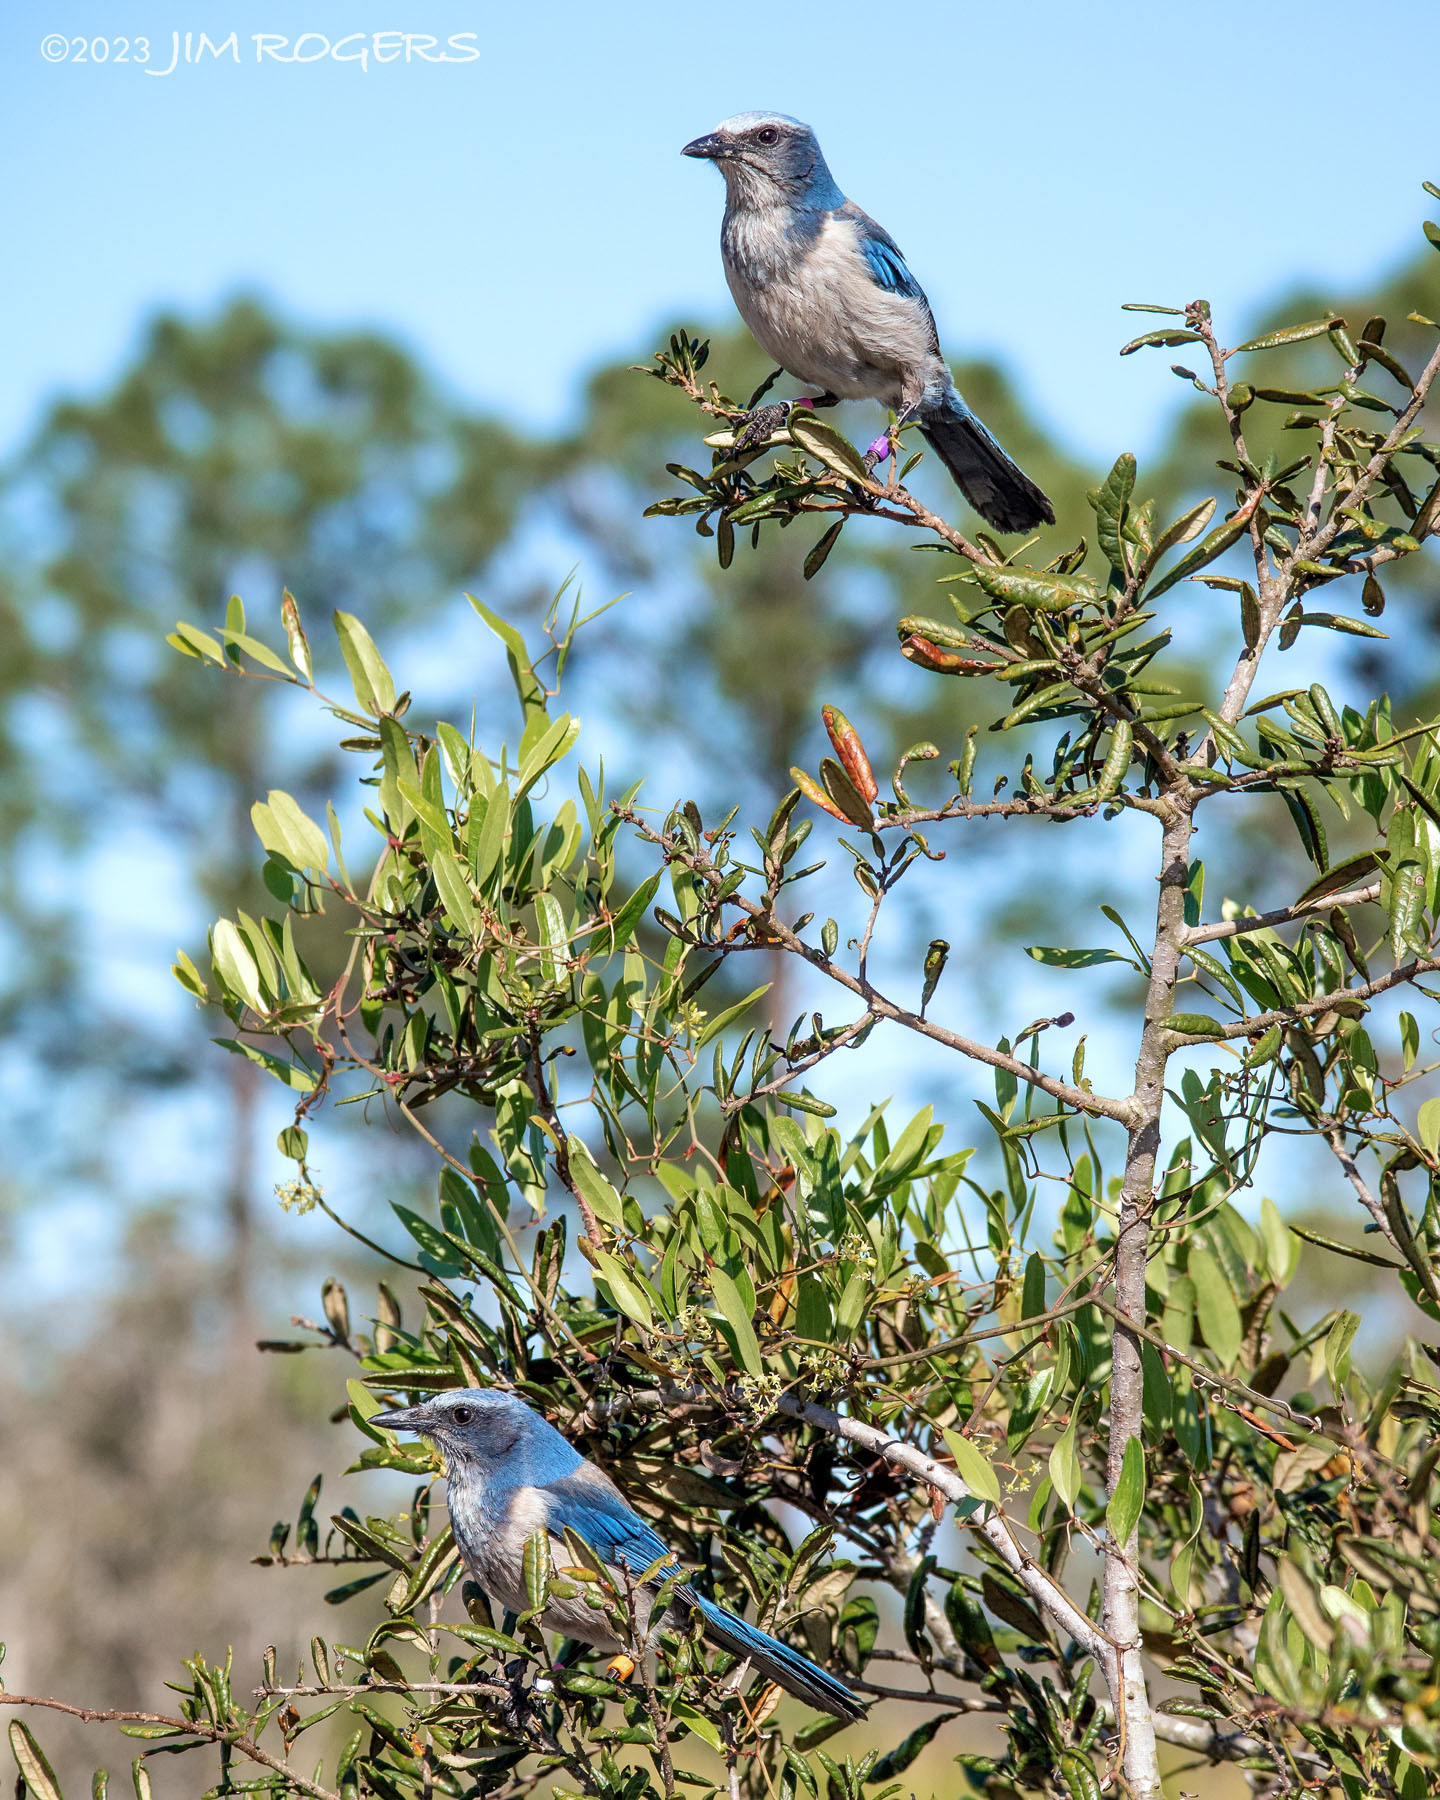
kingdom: Animalia
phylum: Chordata
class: Aves
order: Passeriformes
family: Corvidae
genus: Aphelocoma
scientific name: Aphelocoma coerulescens
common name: Florida scrub jay
